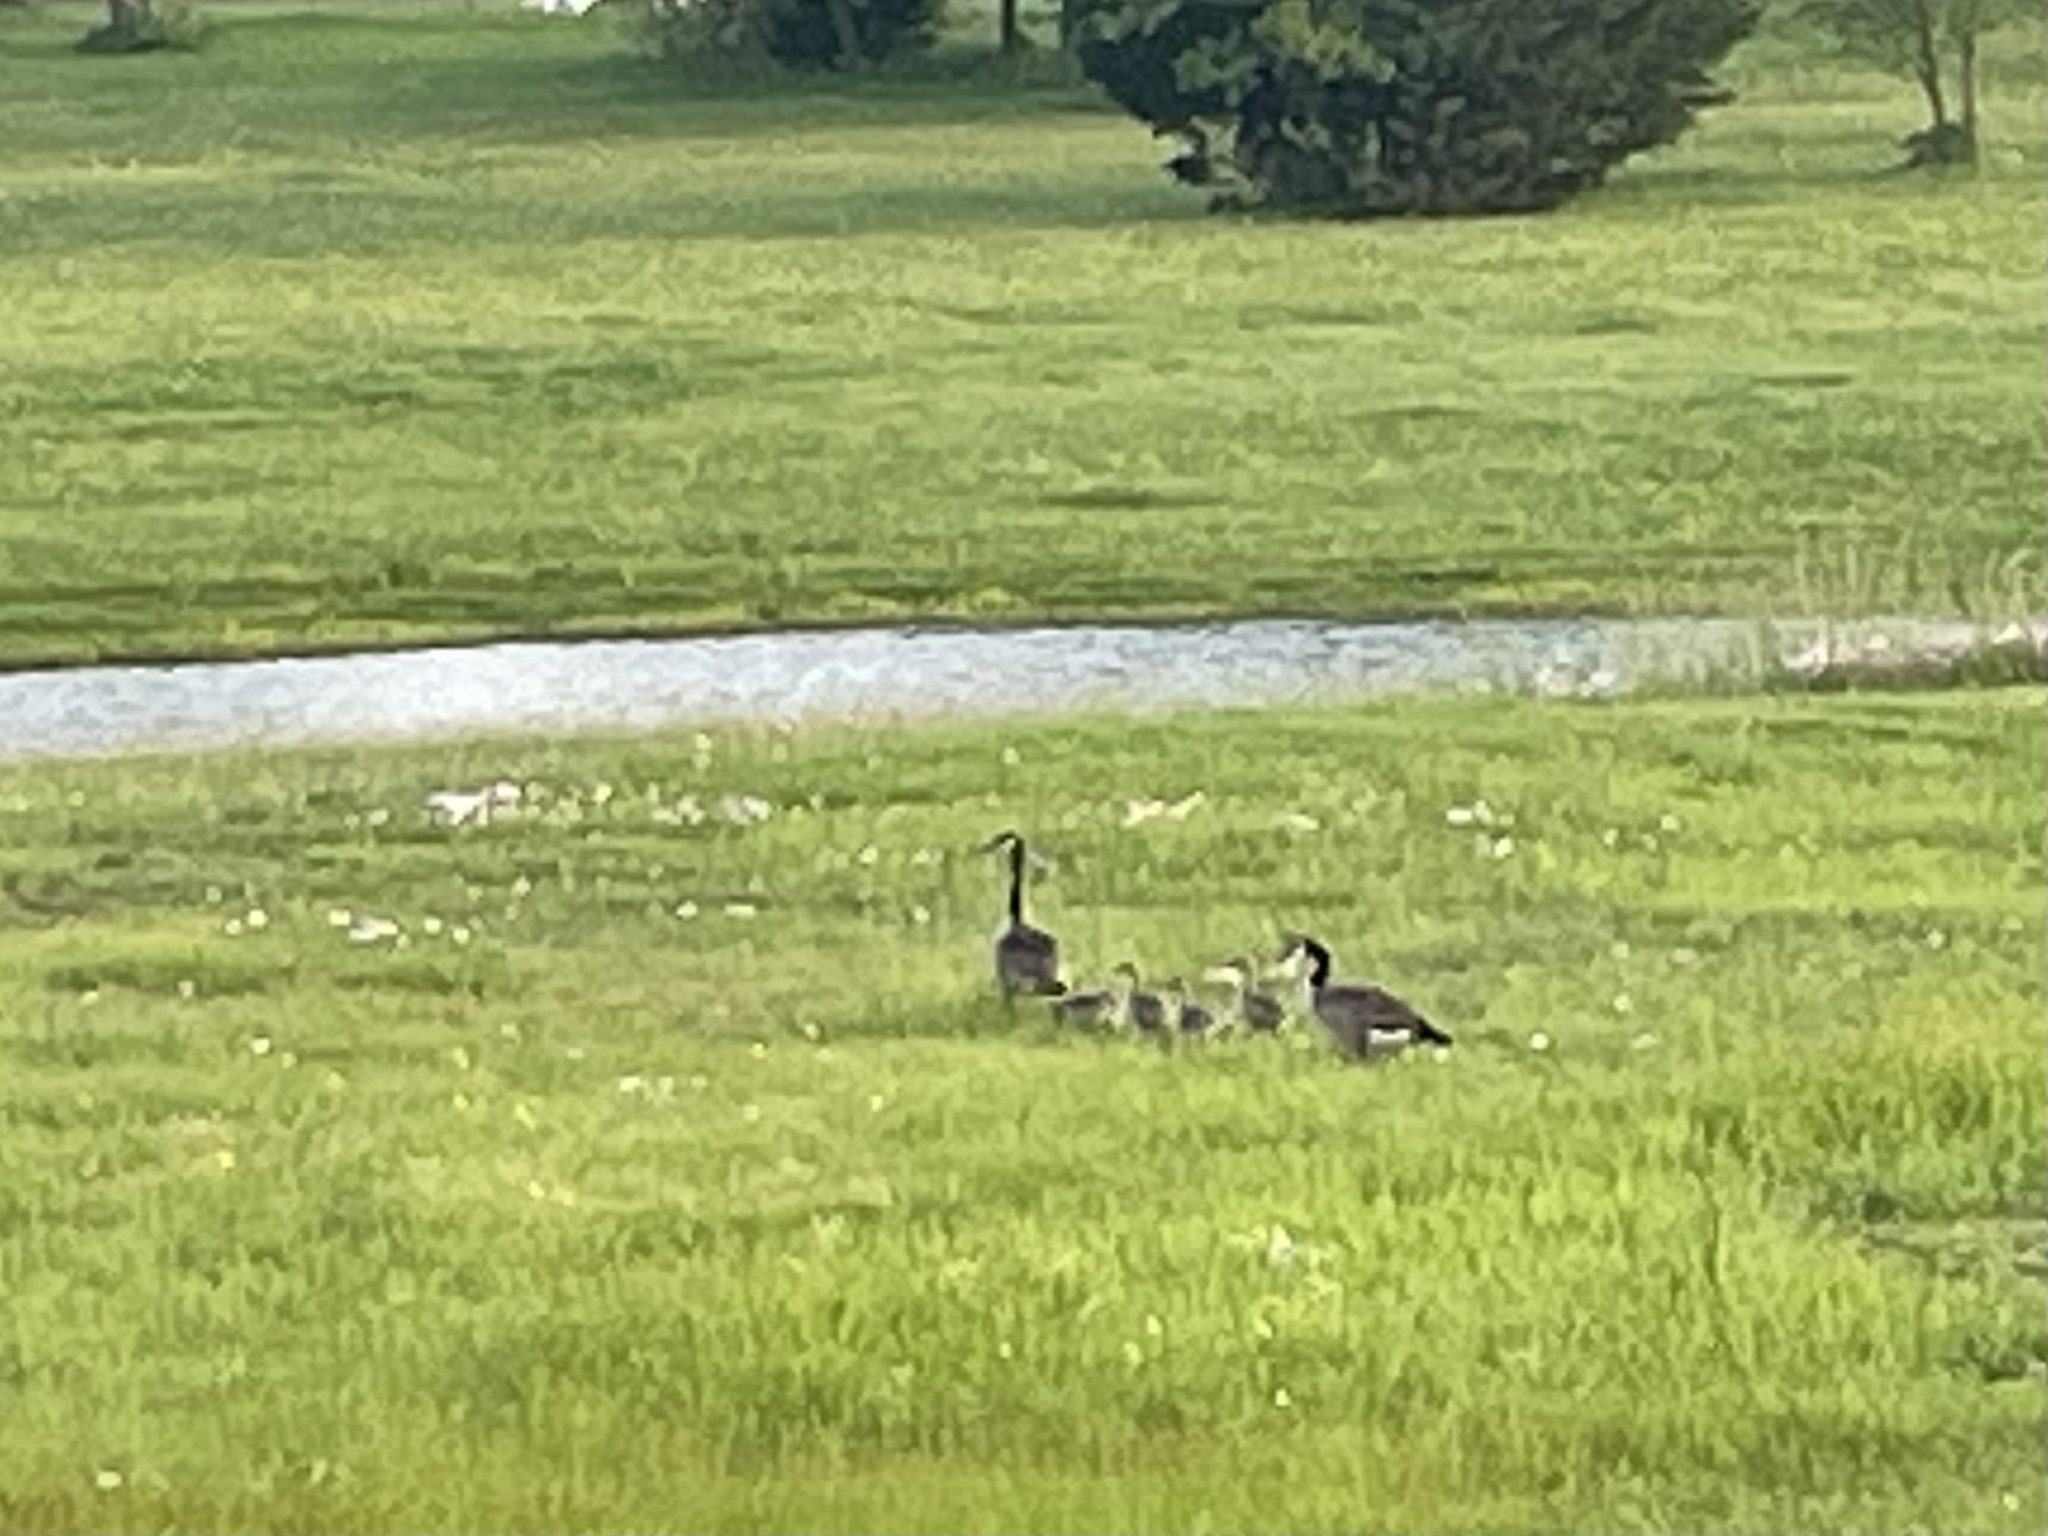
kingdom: Animalia
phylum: Chordata
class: Aves
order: Anseriformes
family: Anatidae
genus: Branta
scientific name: Branta canadensis
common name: Canada goose
